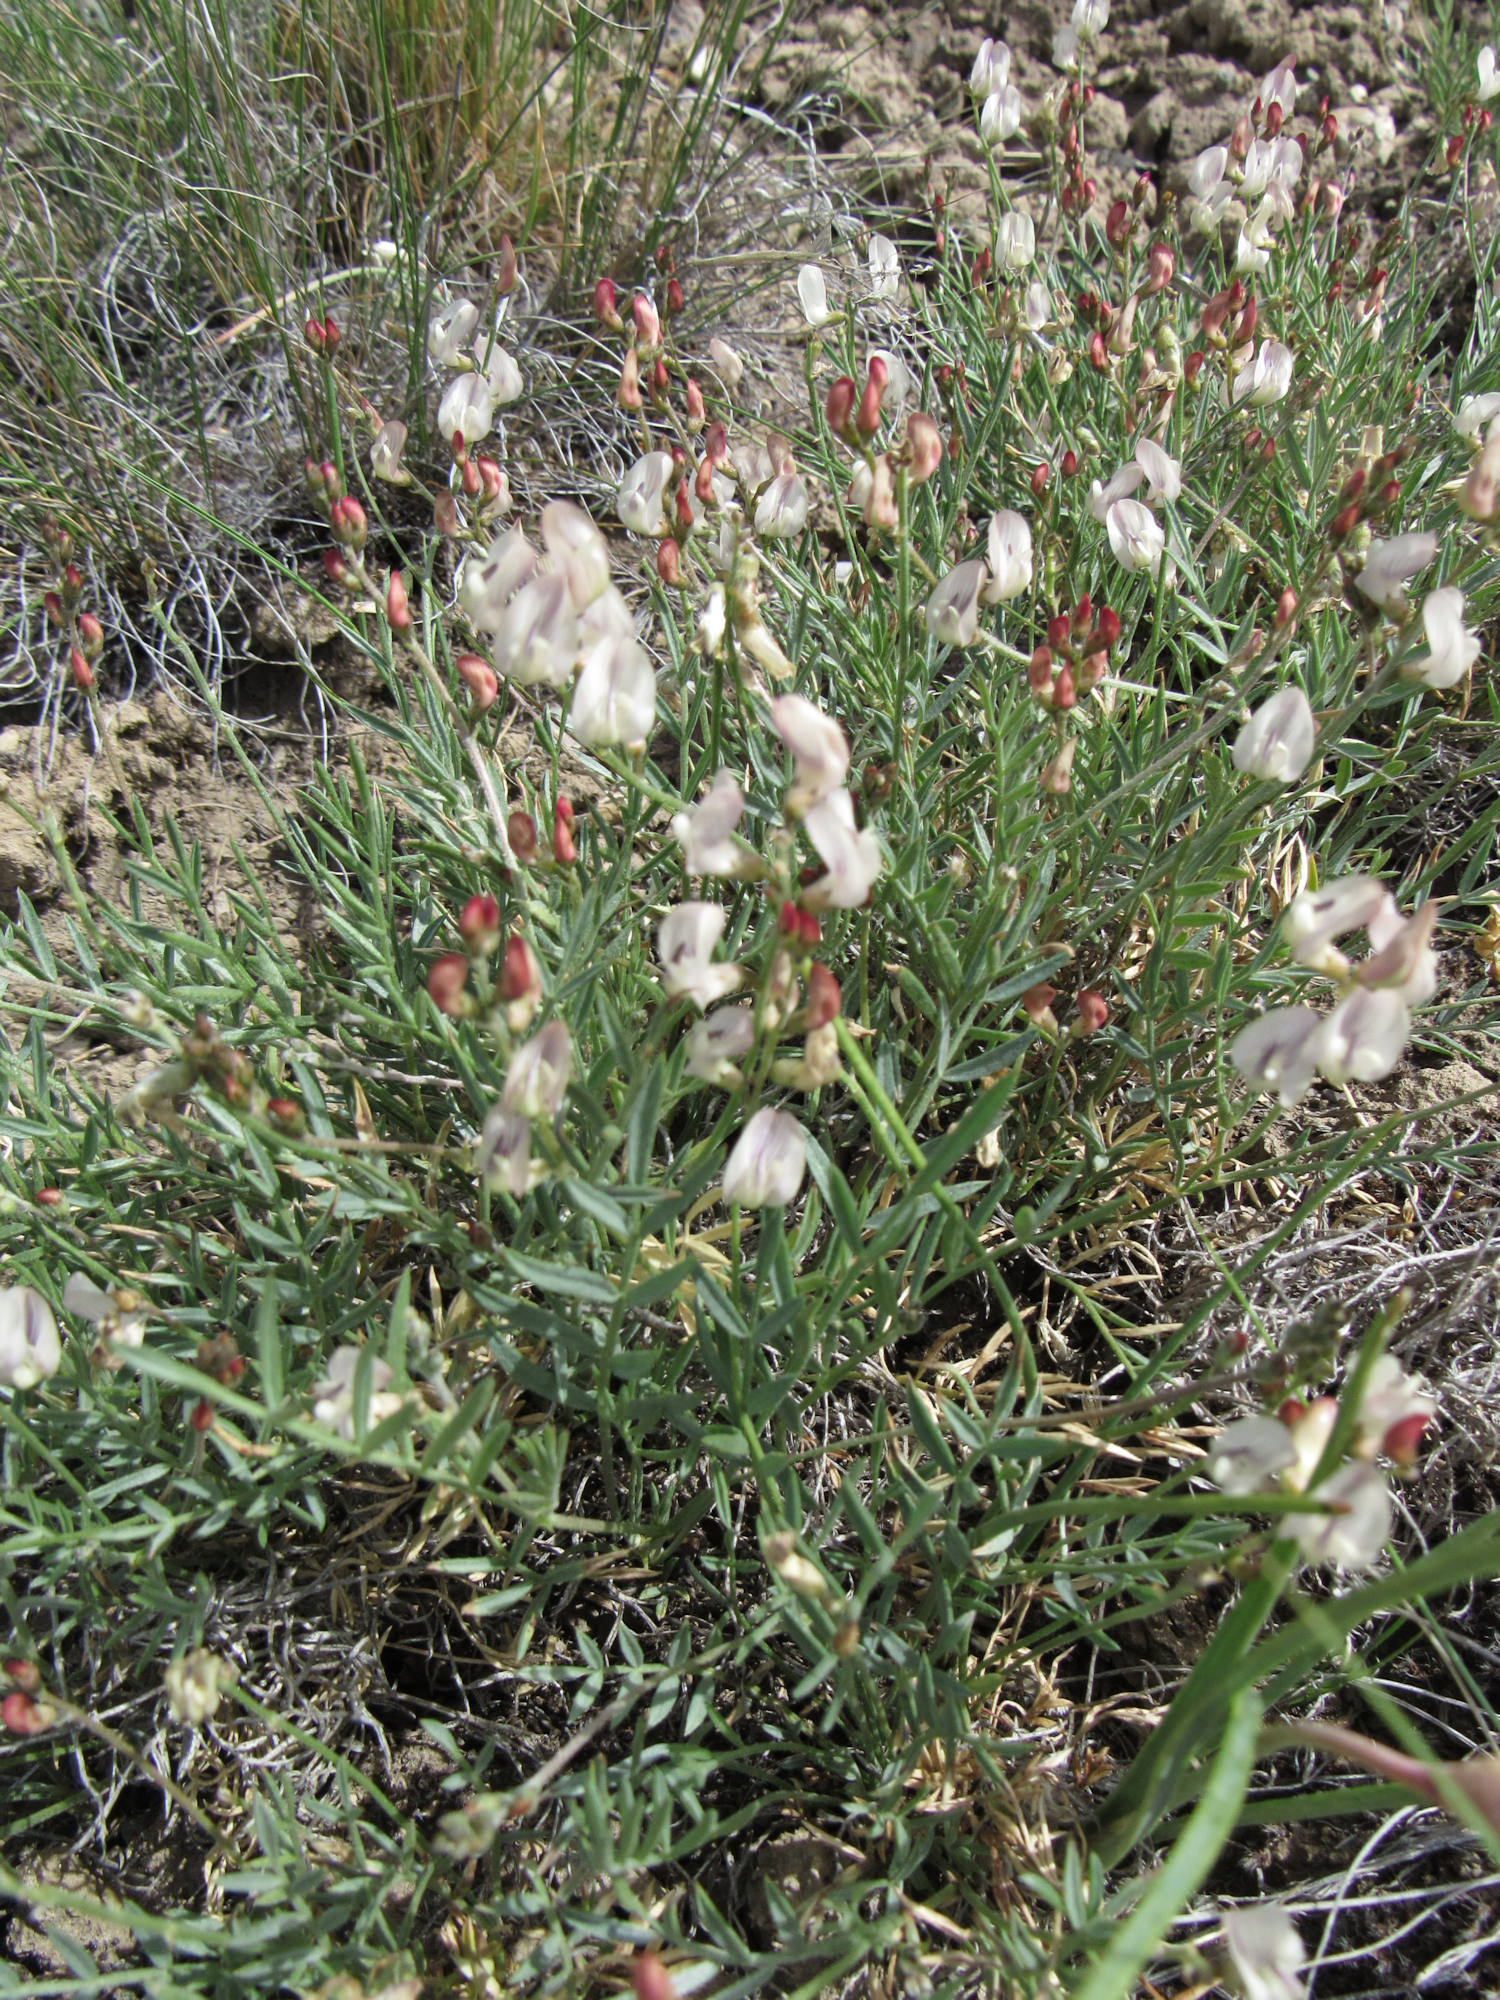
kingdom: Plantae
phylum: Tracheophyta
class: Magnoliopsida
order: Fabales
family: Fabaceae
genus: Astragalus
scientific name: Astragalus miser
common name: Timber milkvetch
